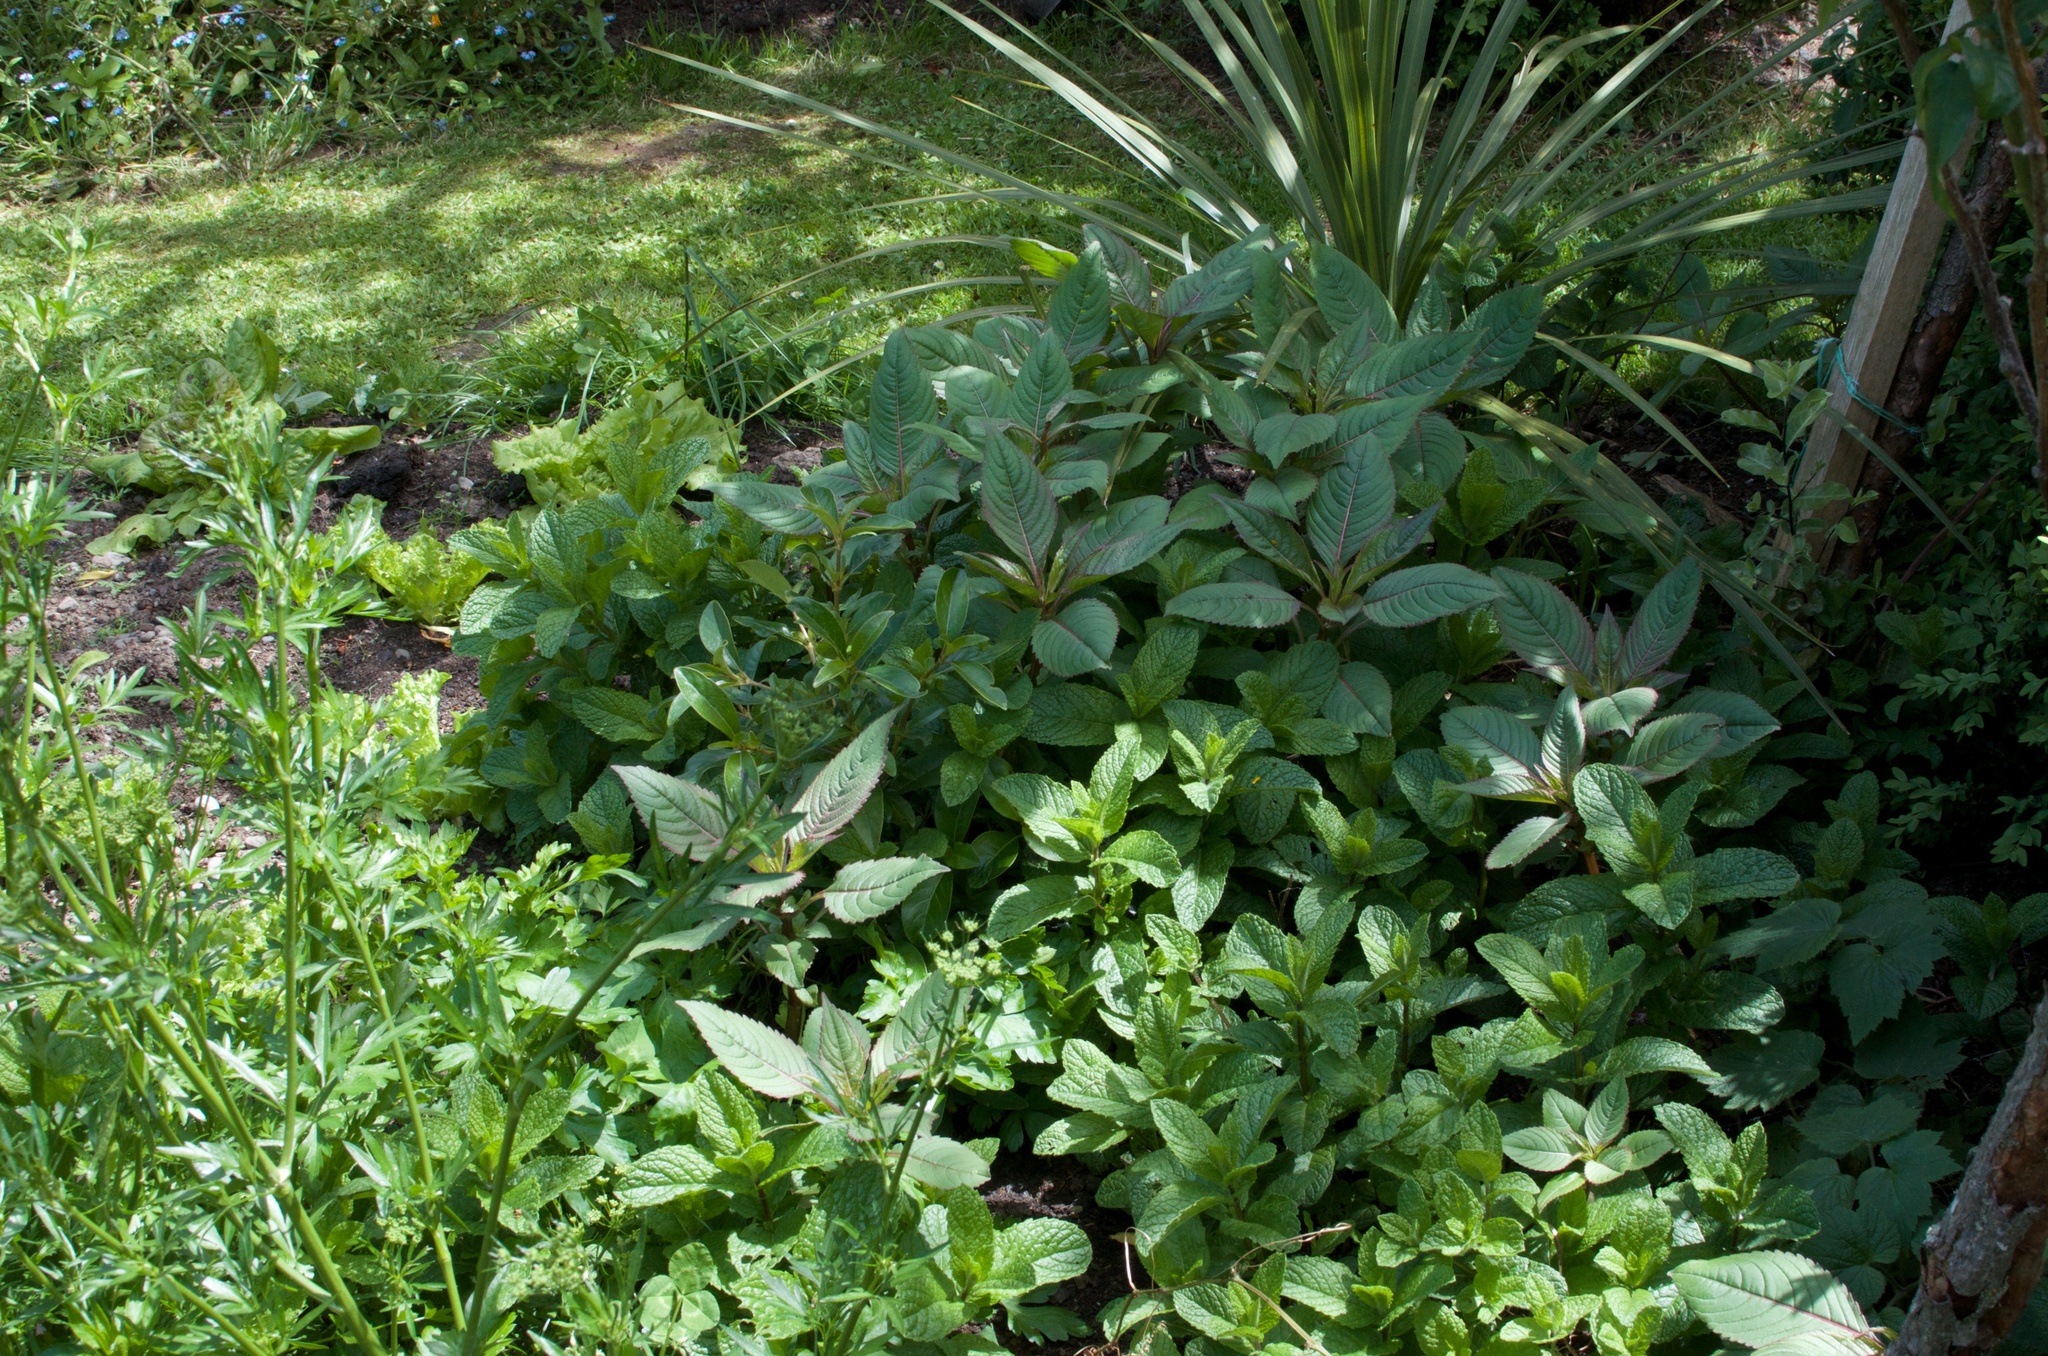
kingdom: Plantae
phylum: Tracheophyta
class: Magnoliopsida
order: Ericales
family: Balsaminaceae
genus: Impatiens
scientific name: Impatiens glandulifera
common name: Himalayan balsam
